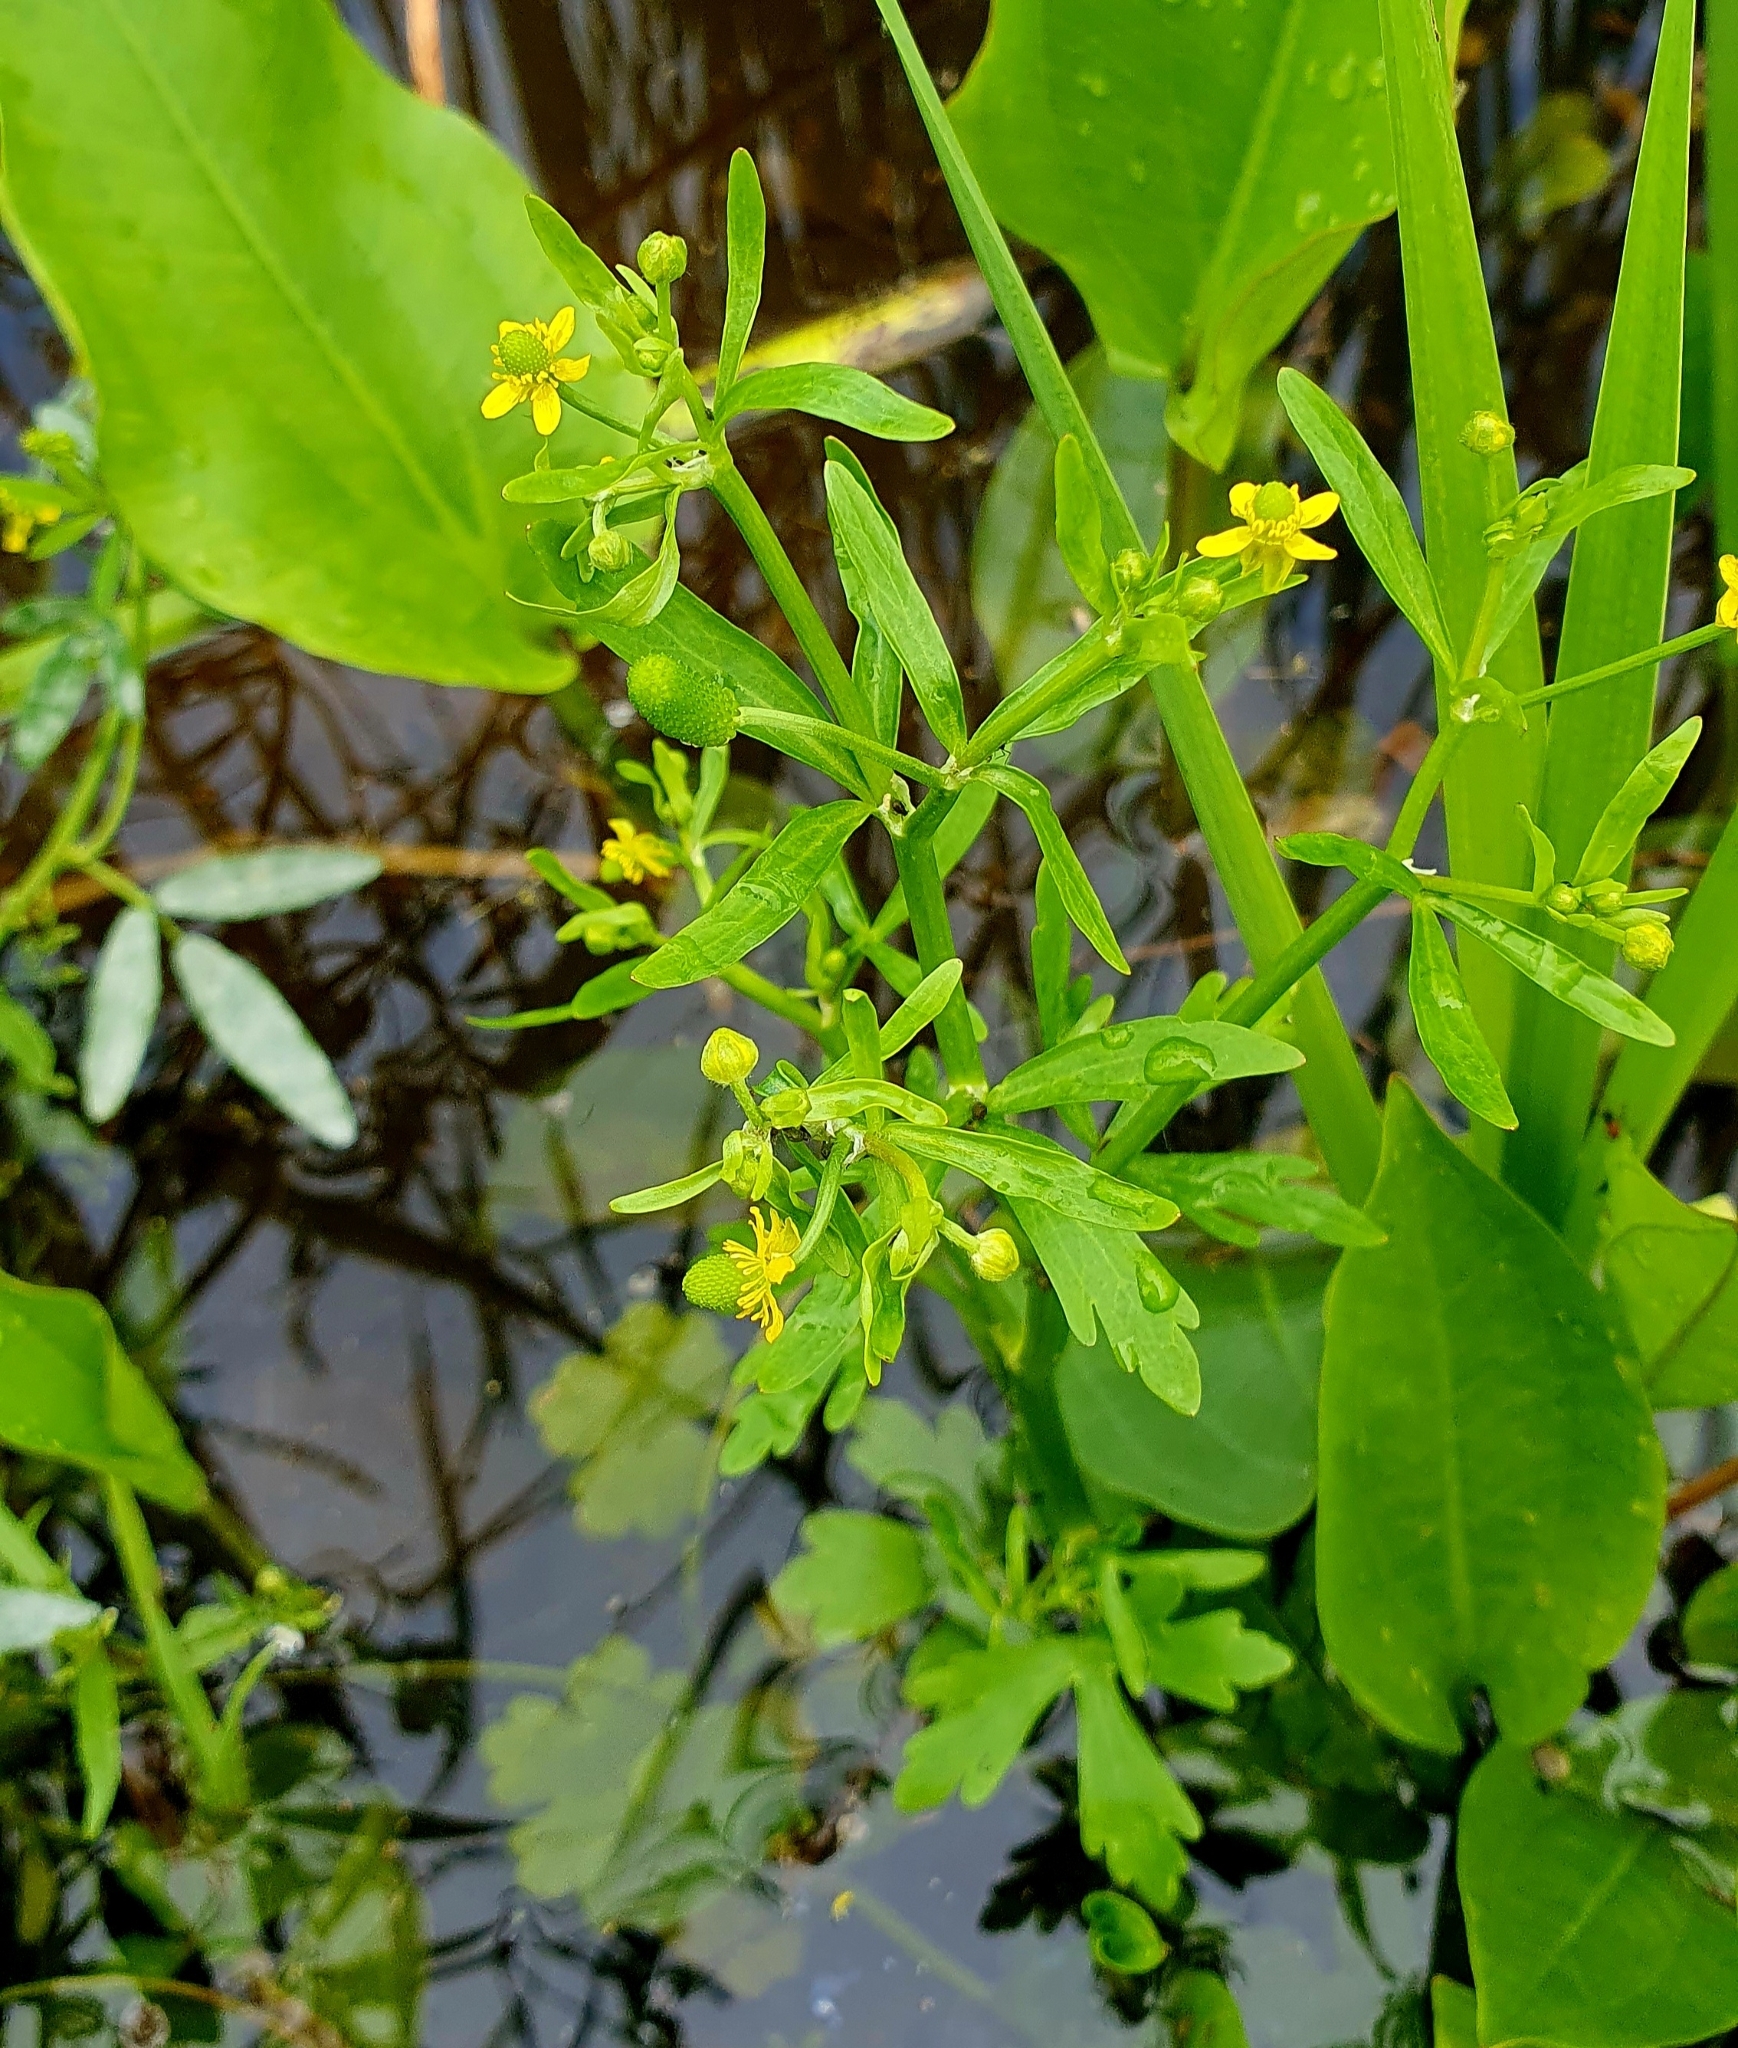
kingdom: Plantae
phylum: Tracheophyta
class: Magnoliopsida
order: Ranunculales
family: Ranunculaceae
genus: Ranunculus
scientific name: Ranunculus sceleratus
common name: Celery-leaved buttercup
